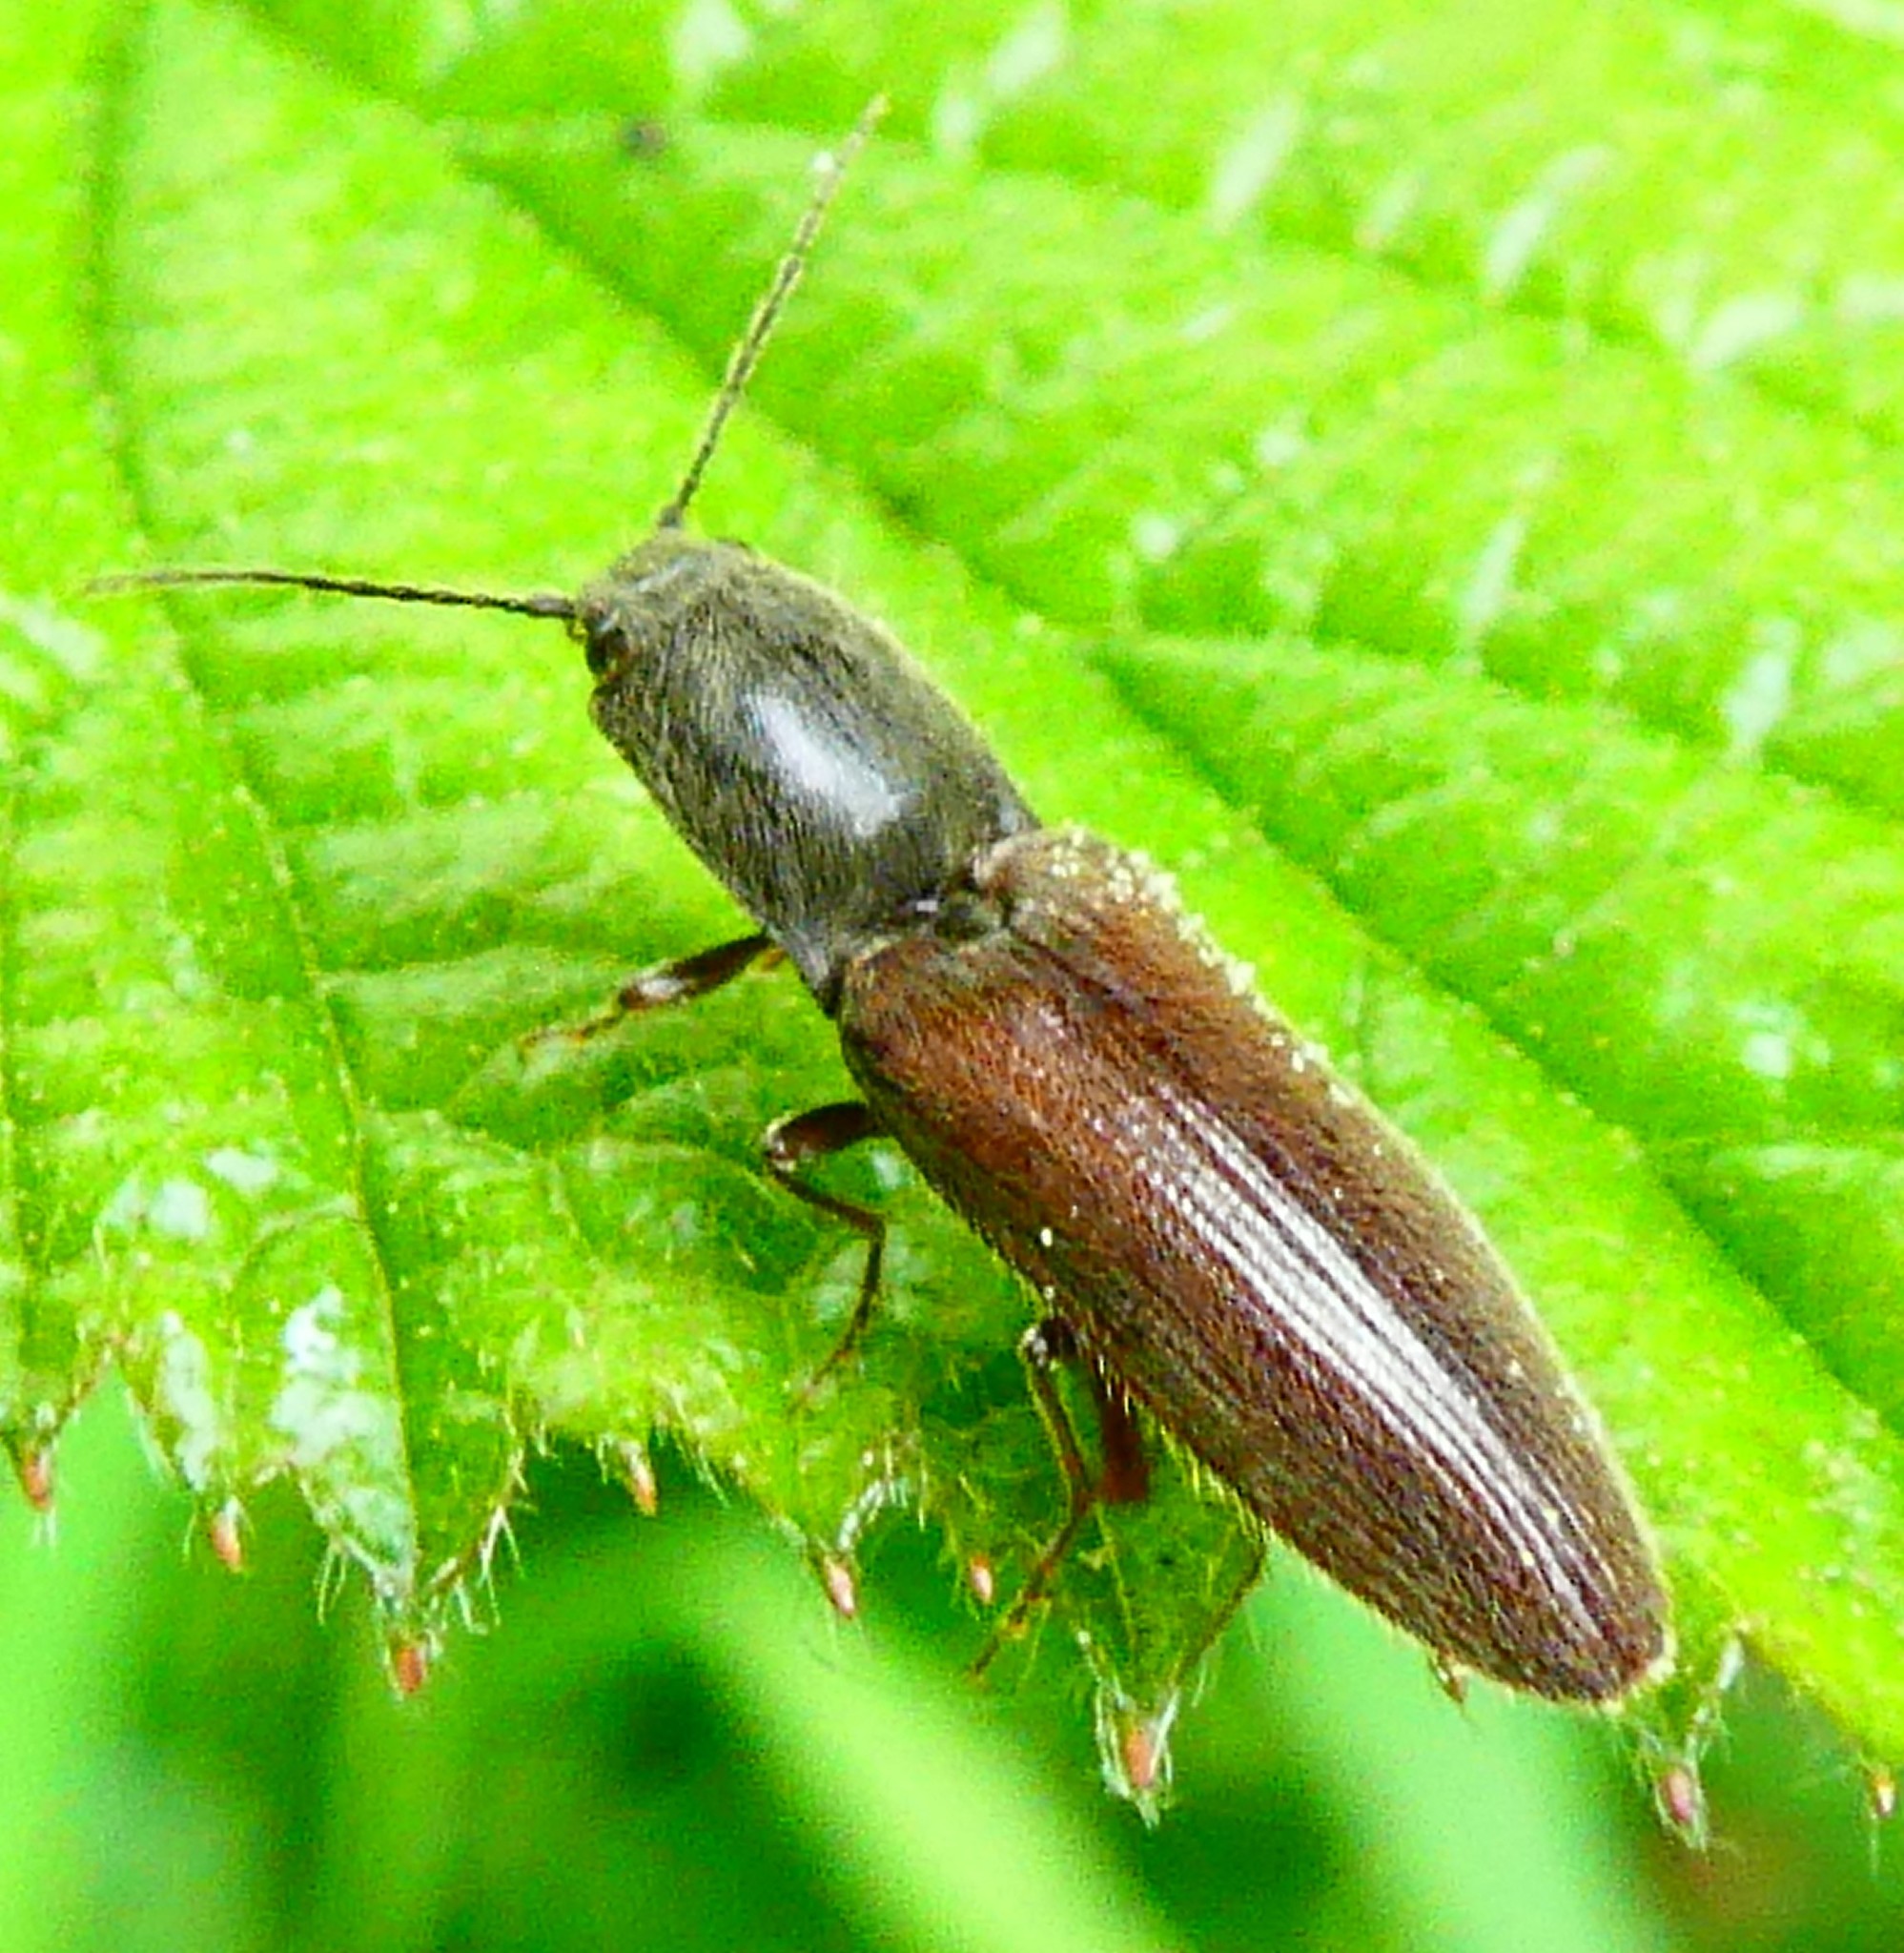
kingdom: Animalia
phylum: Arthropoda
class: Insecta
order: Coleoptera
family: Elateridae
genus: Athous
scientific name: Athous haemorrhoidalis
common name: Red-brown click beetle
